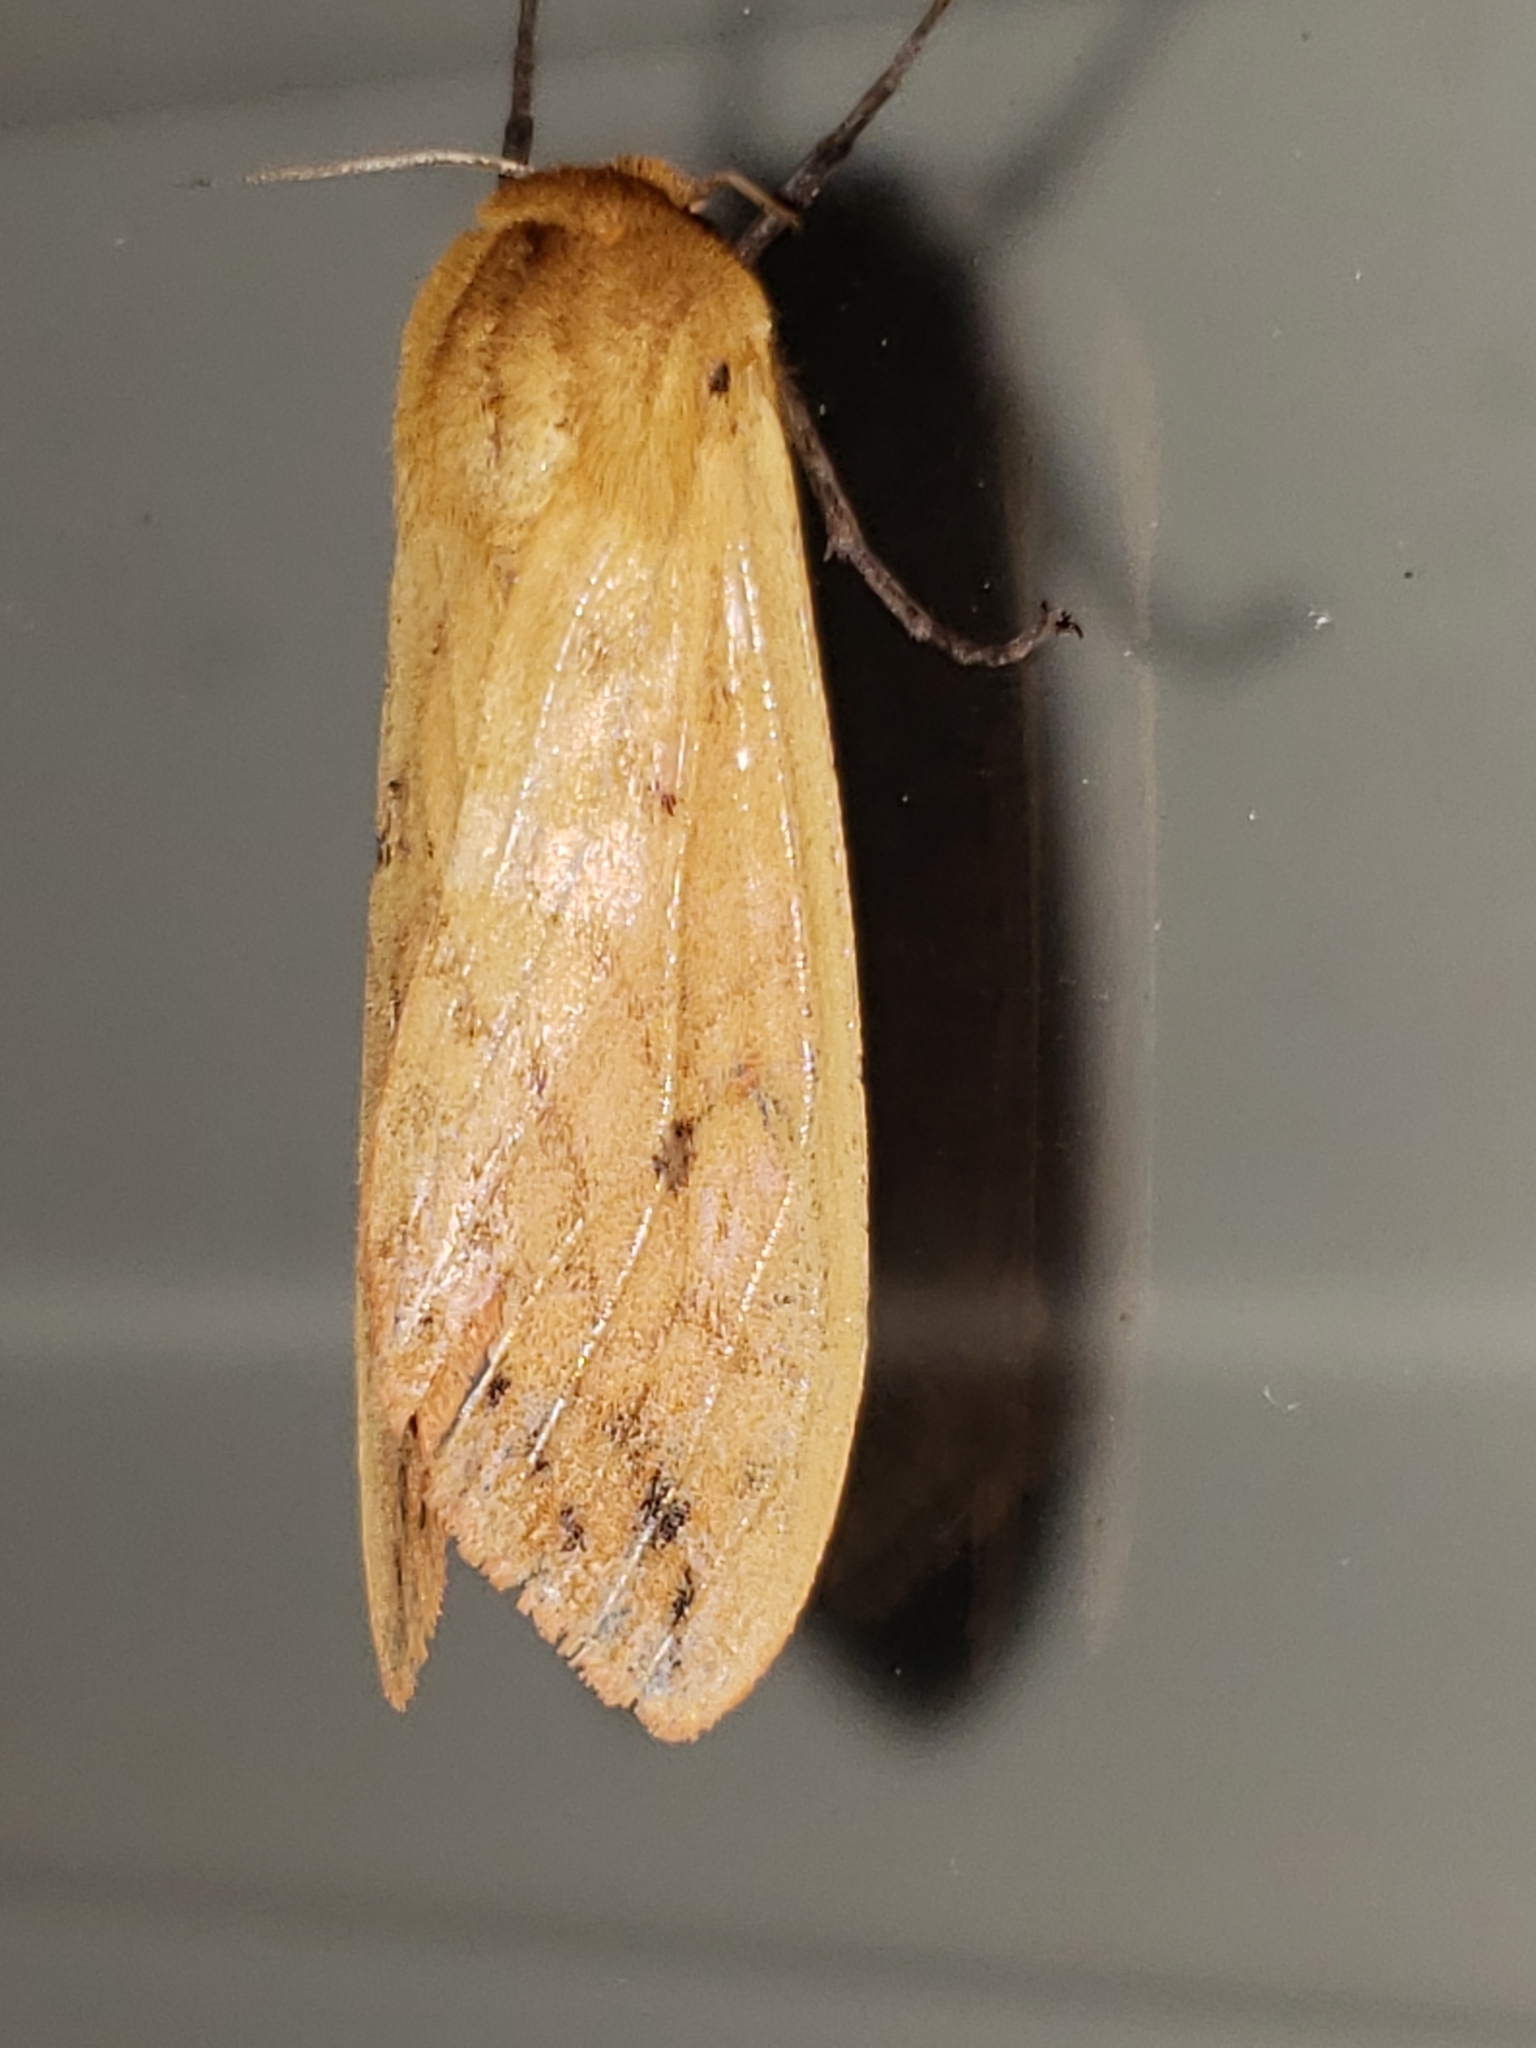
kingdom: Animalia
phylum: Arthropoda
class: Insecta
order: Lepidoptera
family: Erebidae
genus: Pyrrharctia
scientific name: Pyrrharctia isabella
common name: Isabella tiger moth
